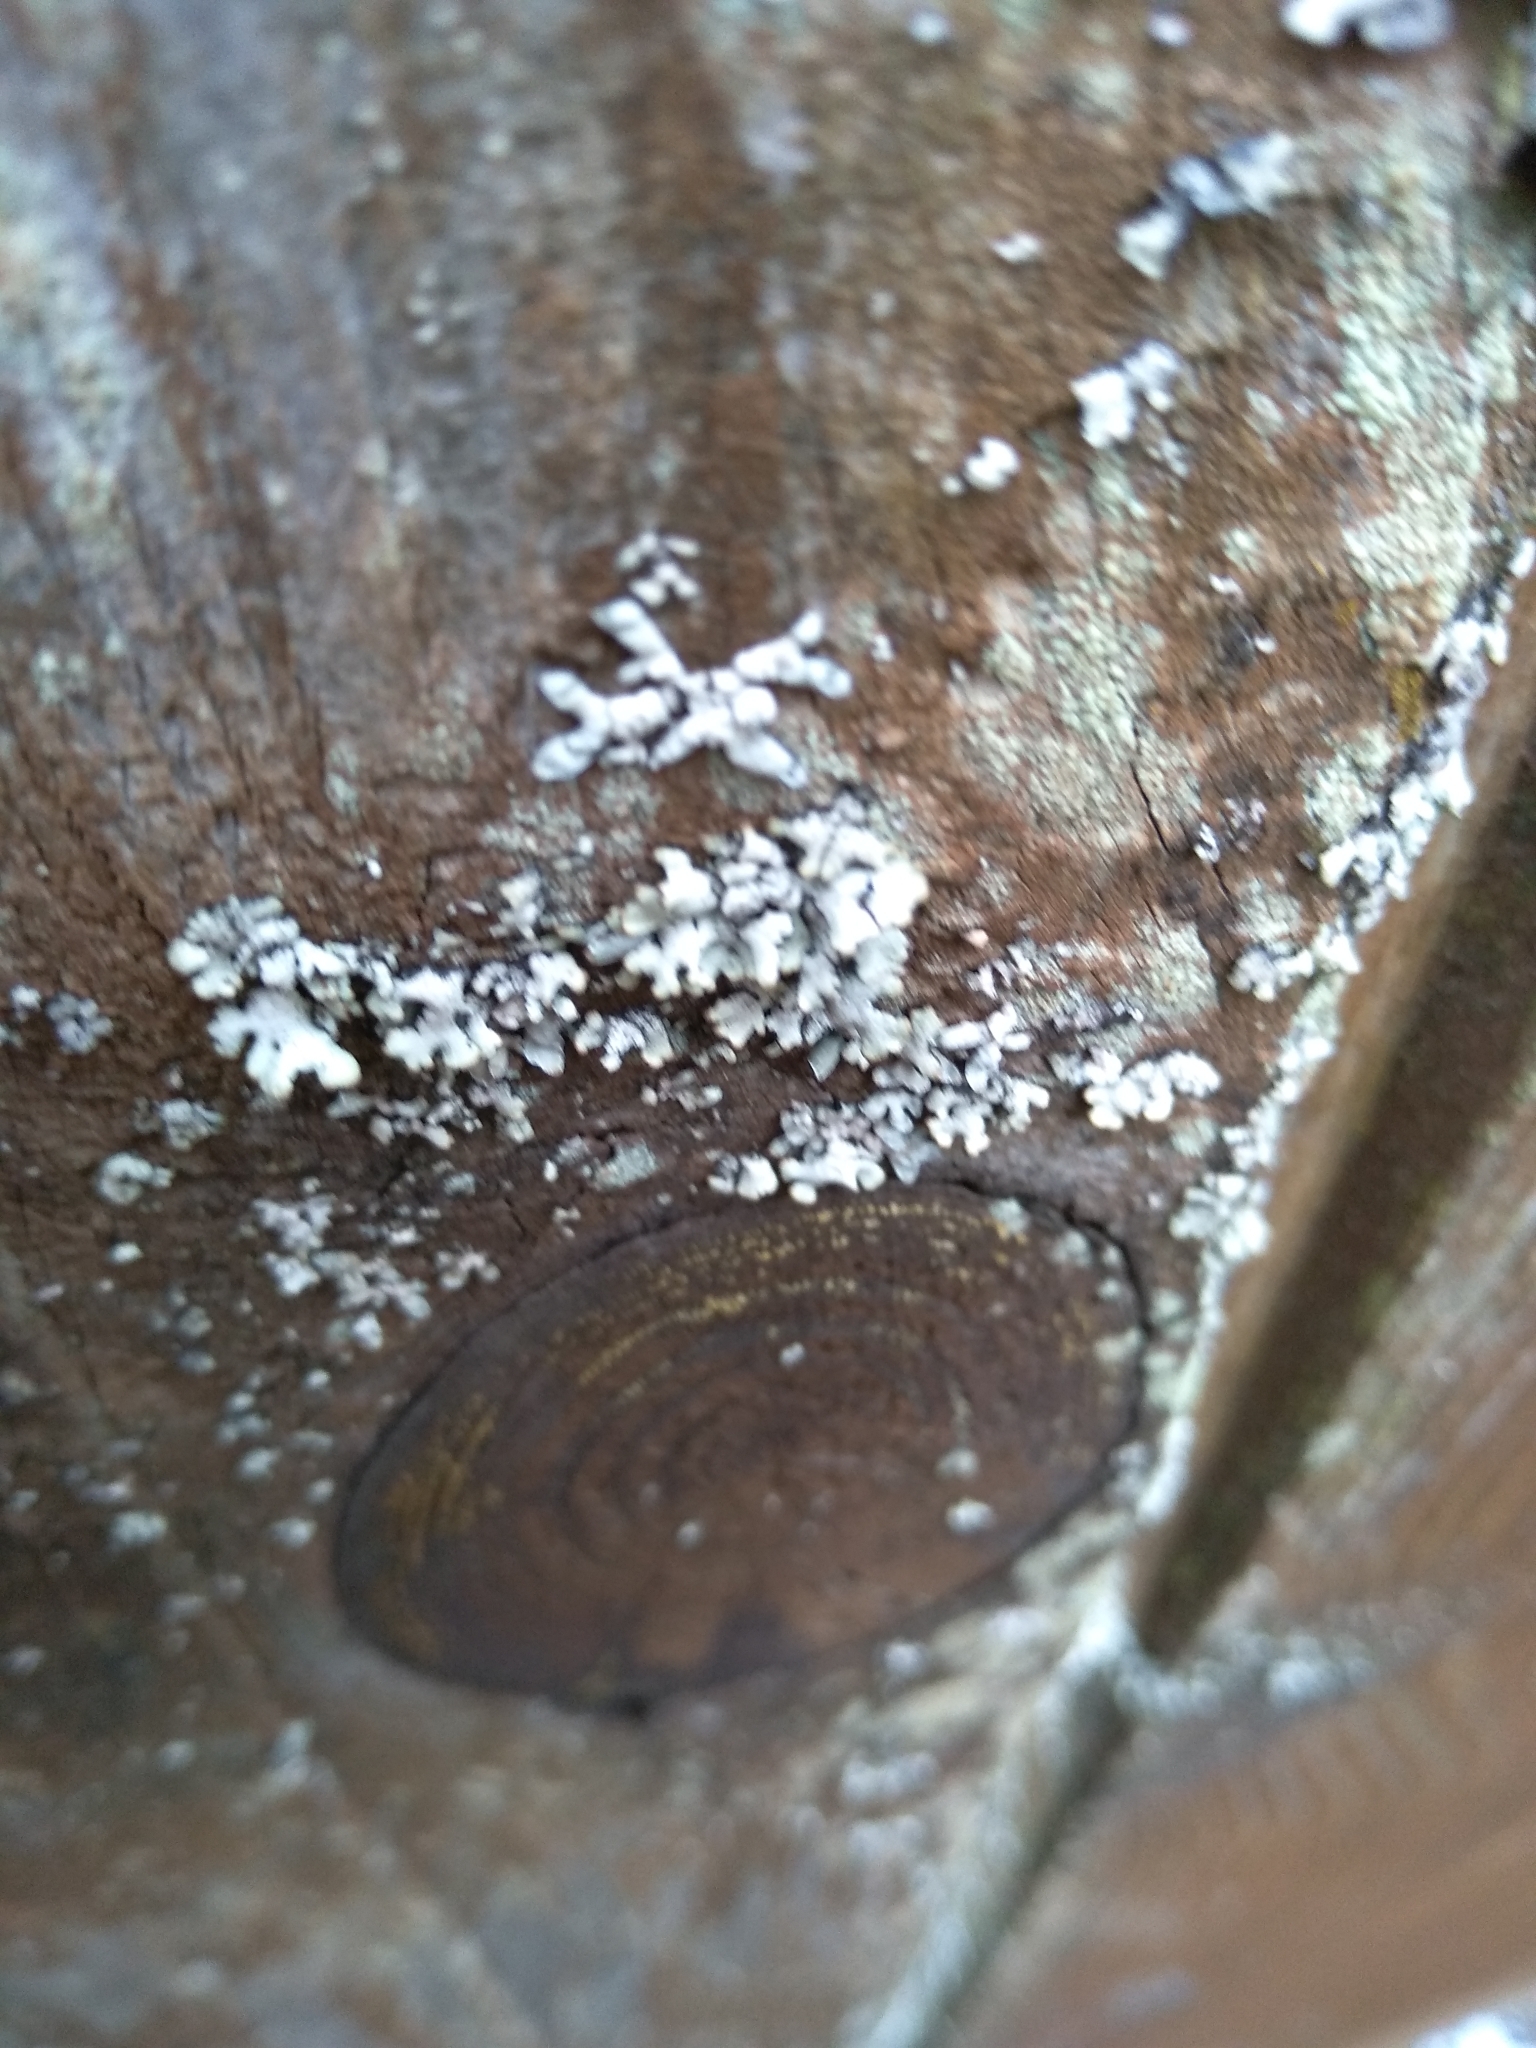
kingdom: Fungi
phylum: Ascomycota
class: Lecanoromycetes
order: Lecanorales
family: Parmeliaceae
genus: Parmelia
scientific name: Parmelia sulcata
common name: Netted shield lichen
